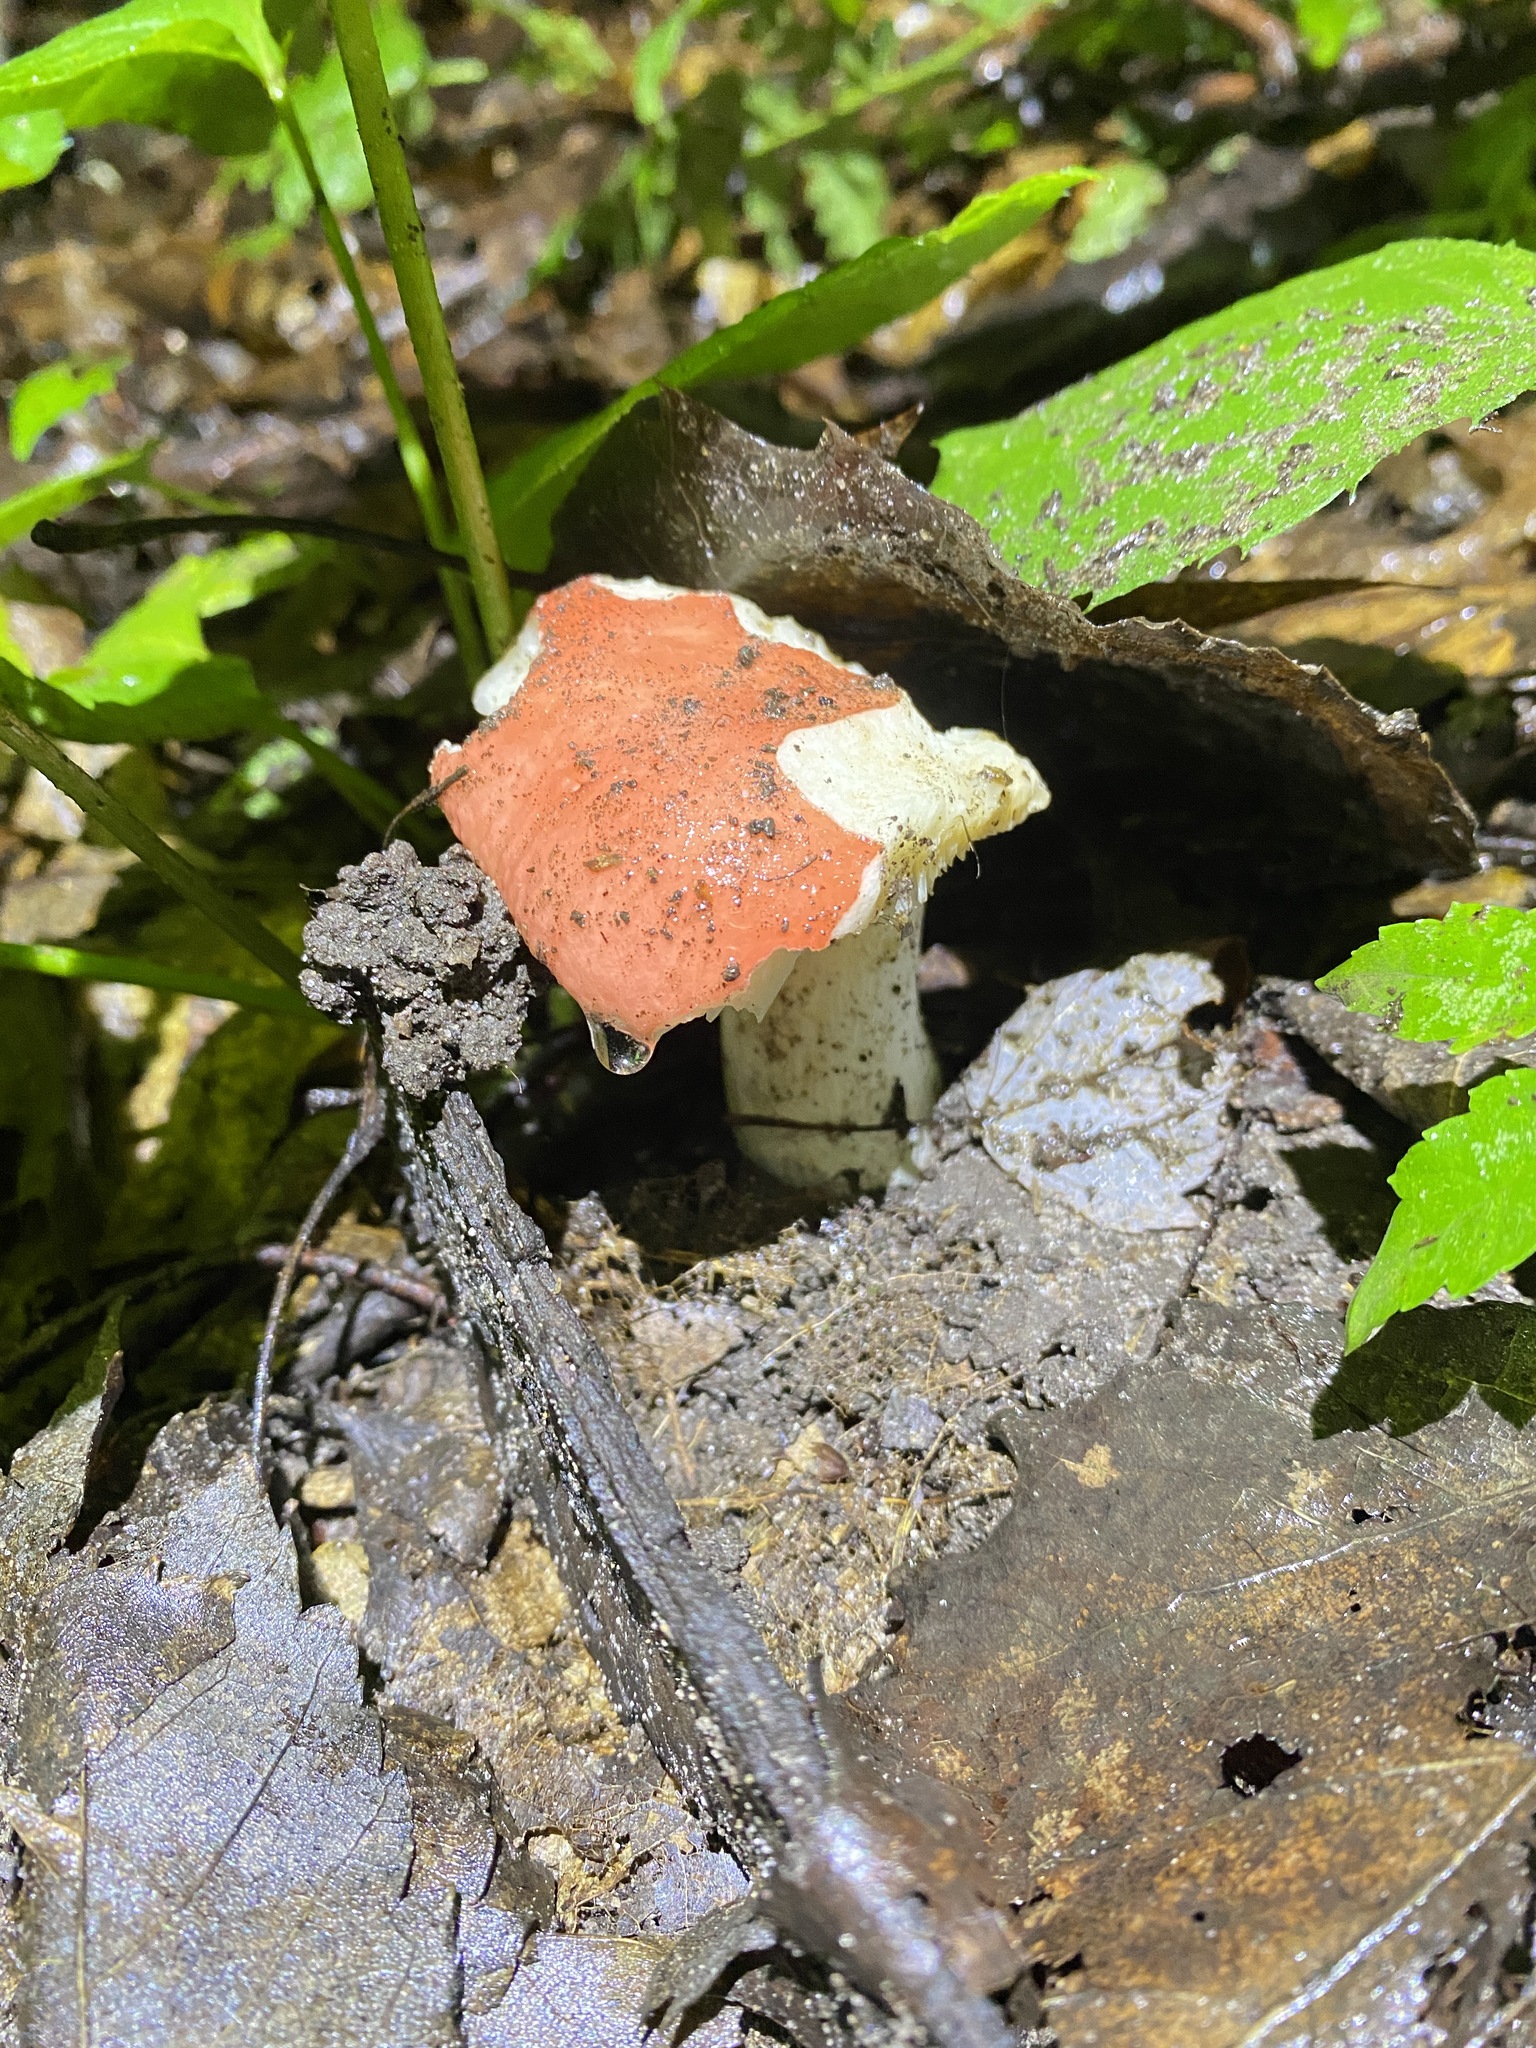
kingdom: Fungi
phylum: Basidiomycota
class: Agaricomycetes
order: Russulales
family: Russulaceae
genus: Russula
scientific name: Russula
